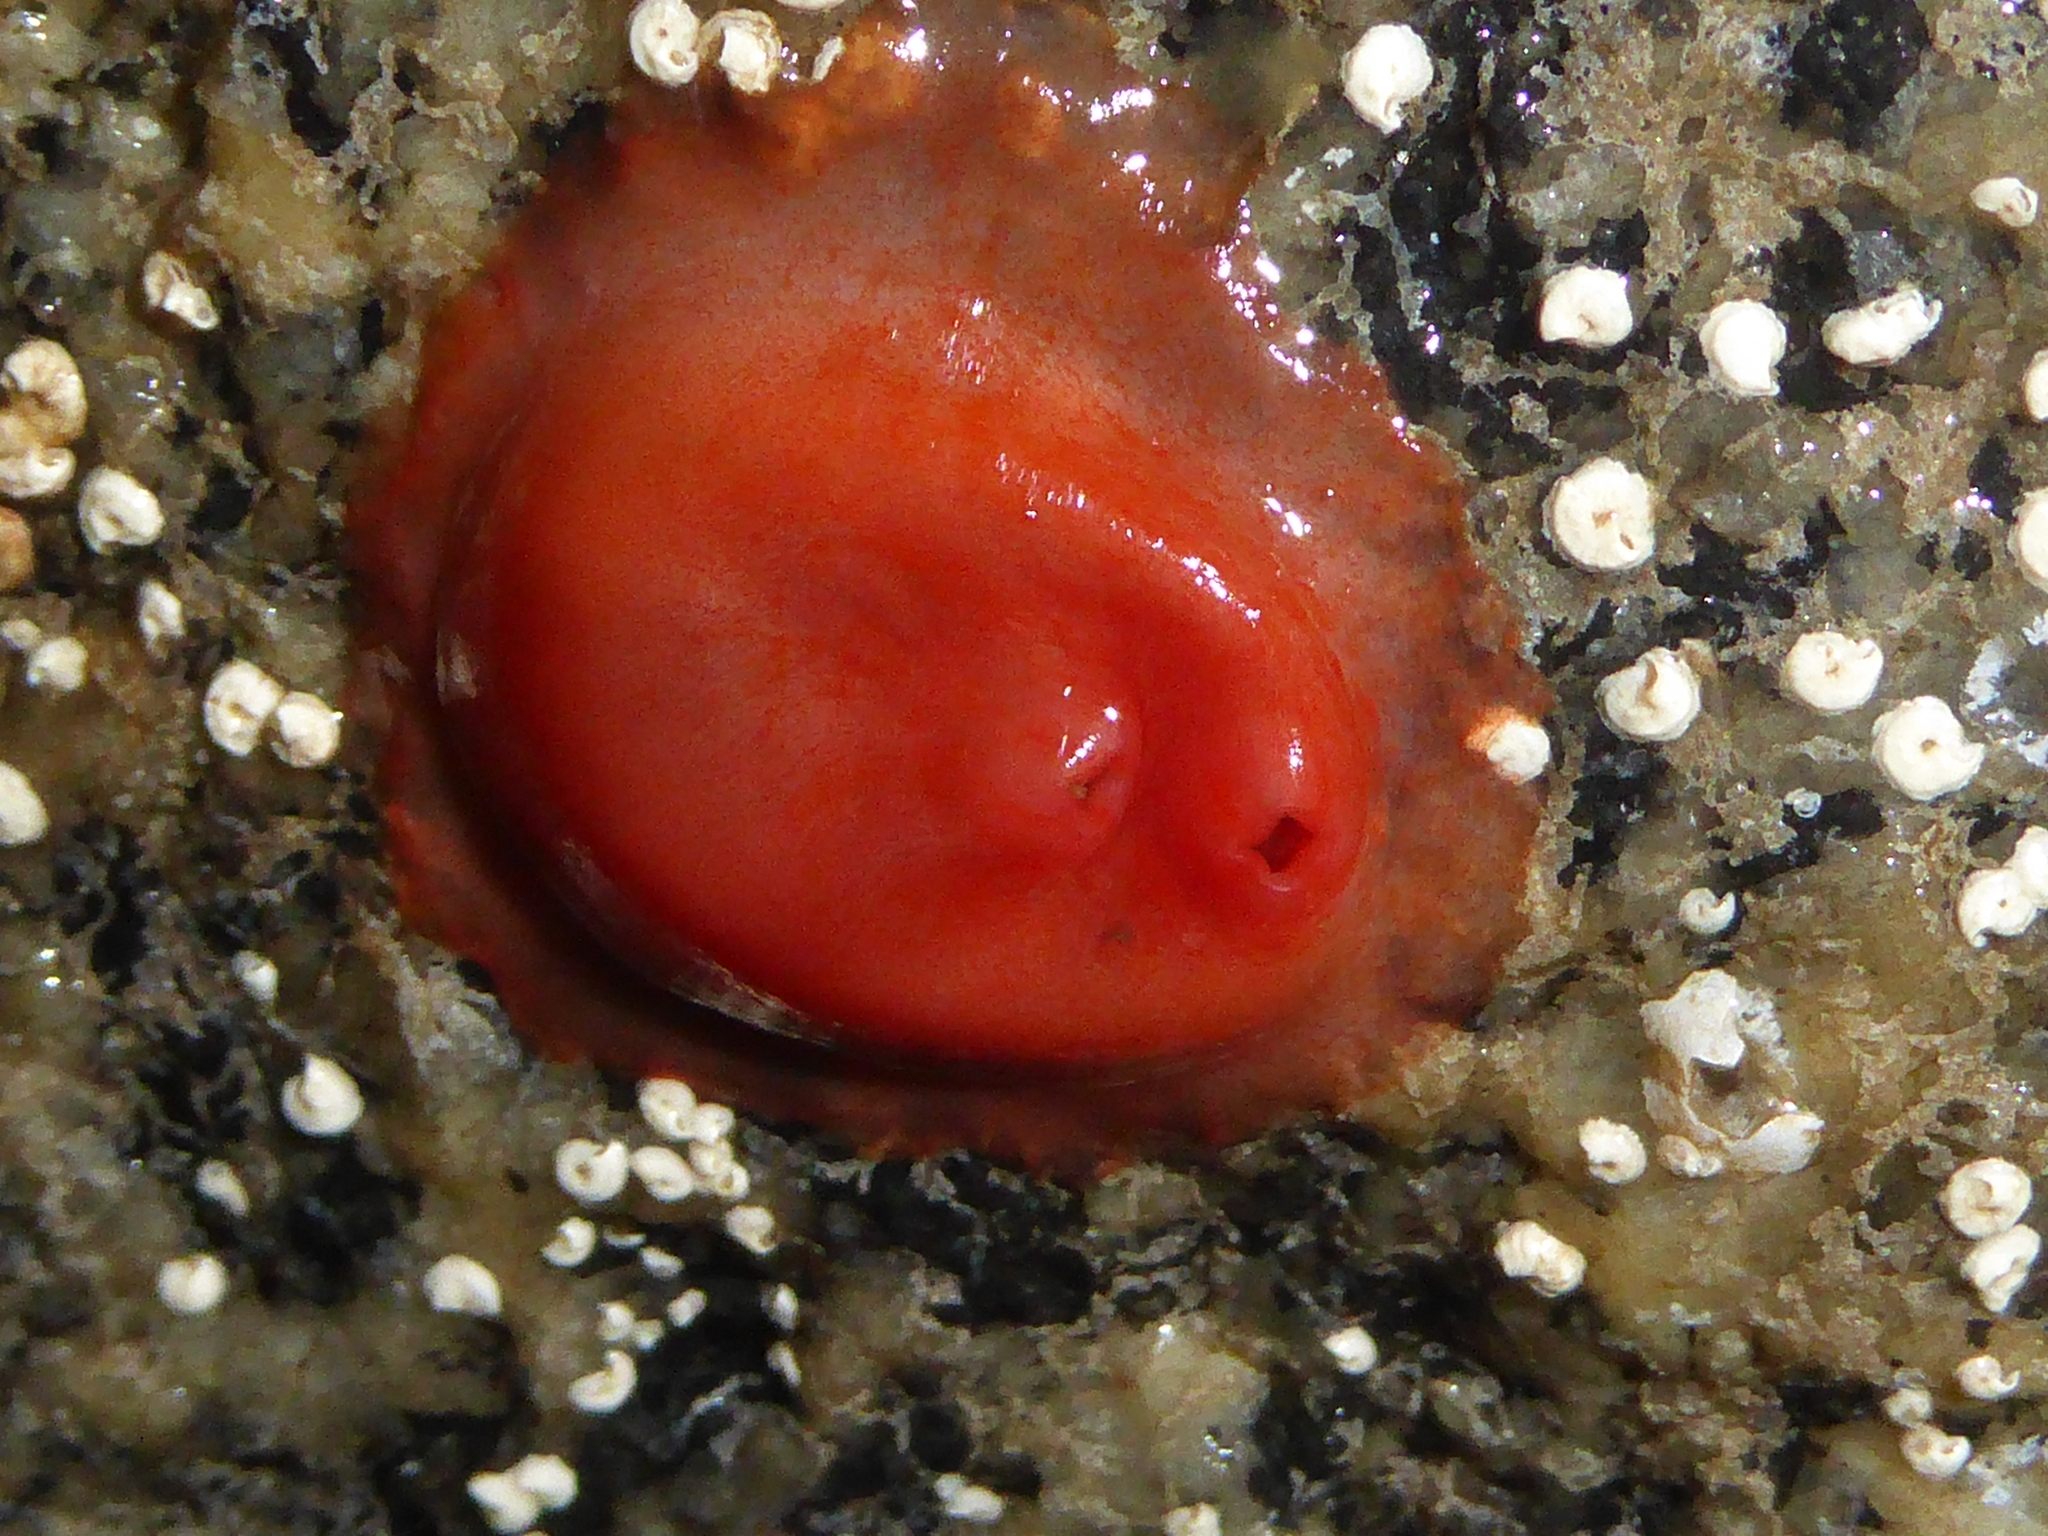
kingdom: Animalia
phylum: Chordata
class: Ascidiacea
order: Stolidobranchia
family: Styelidae
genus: Cnemidocarpa
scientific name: Cnemidocarpa finmarkiensis
